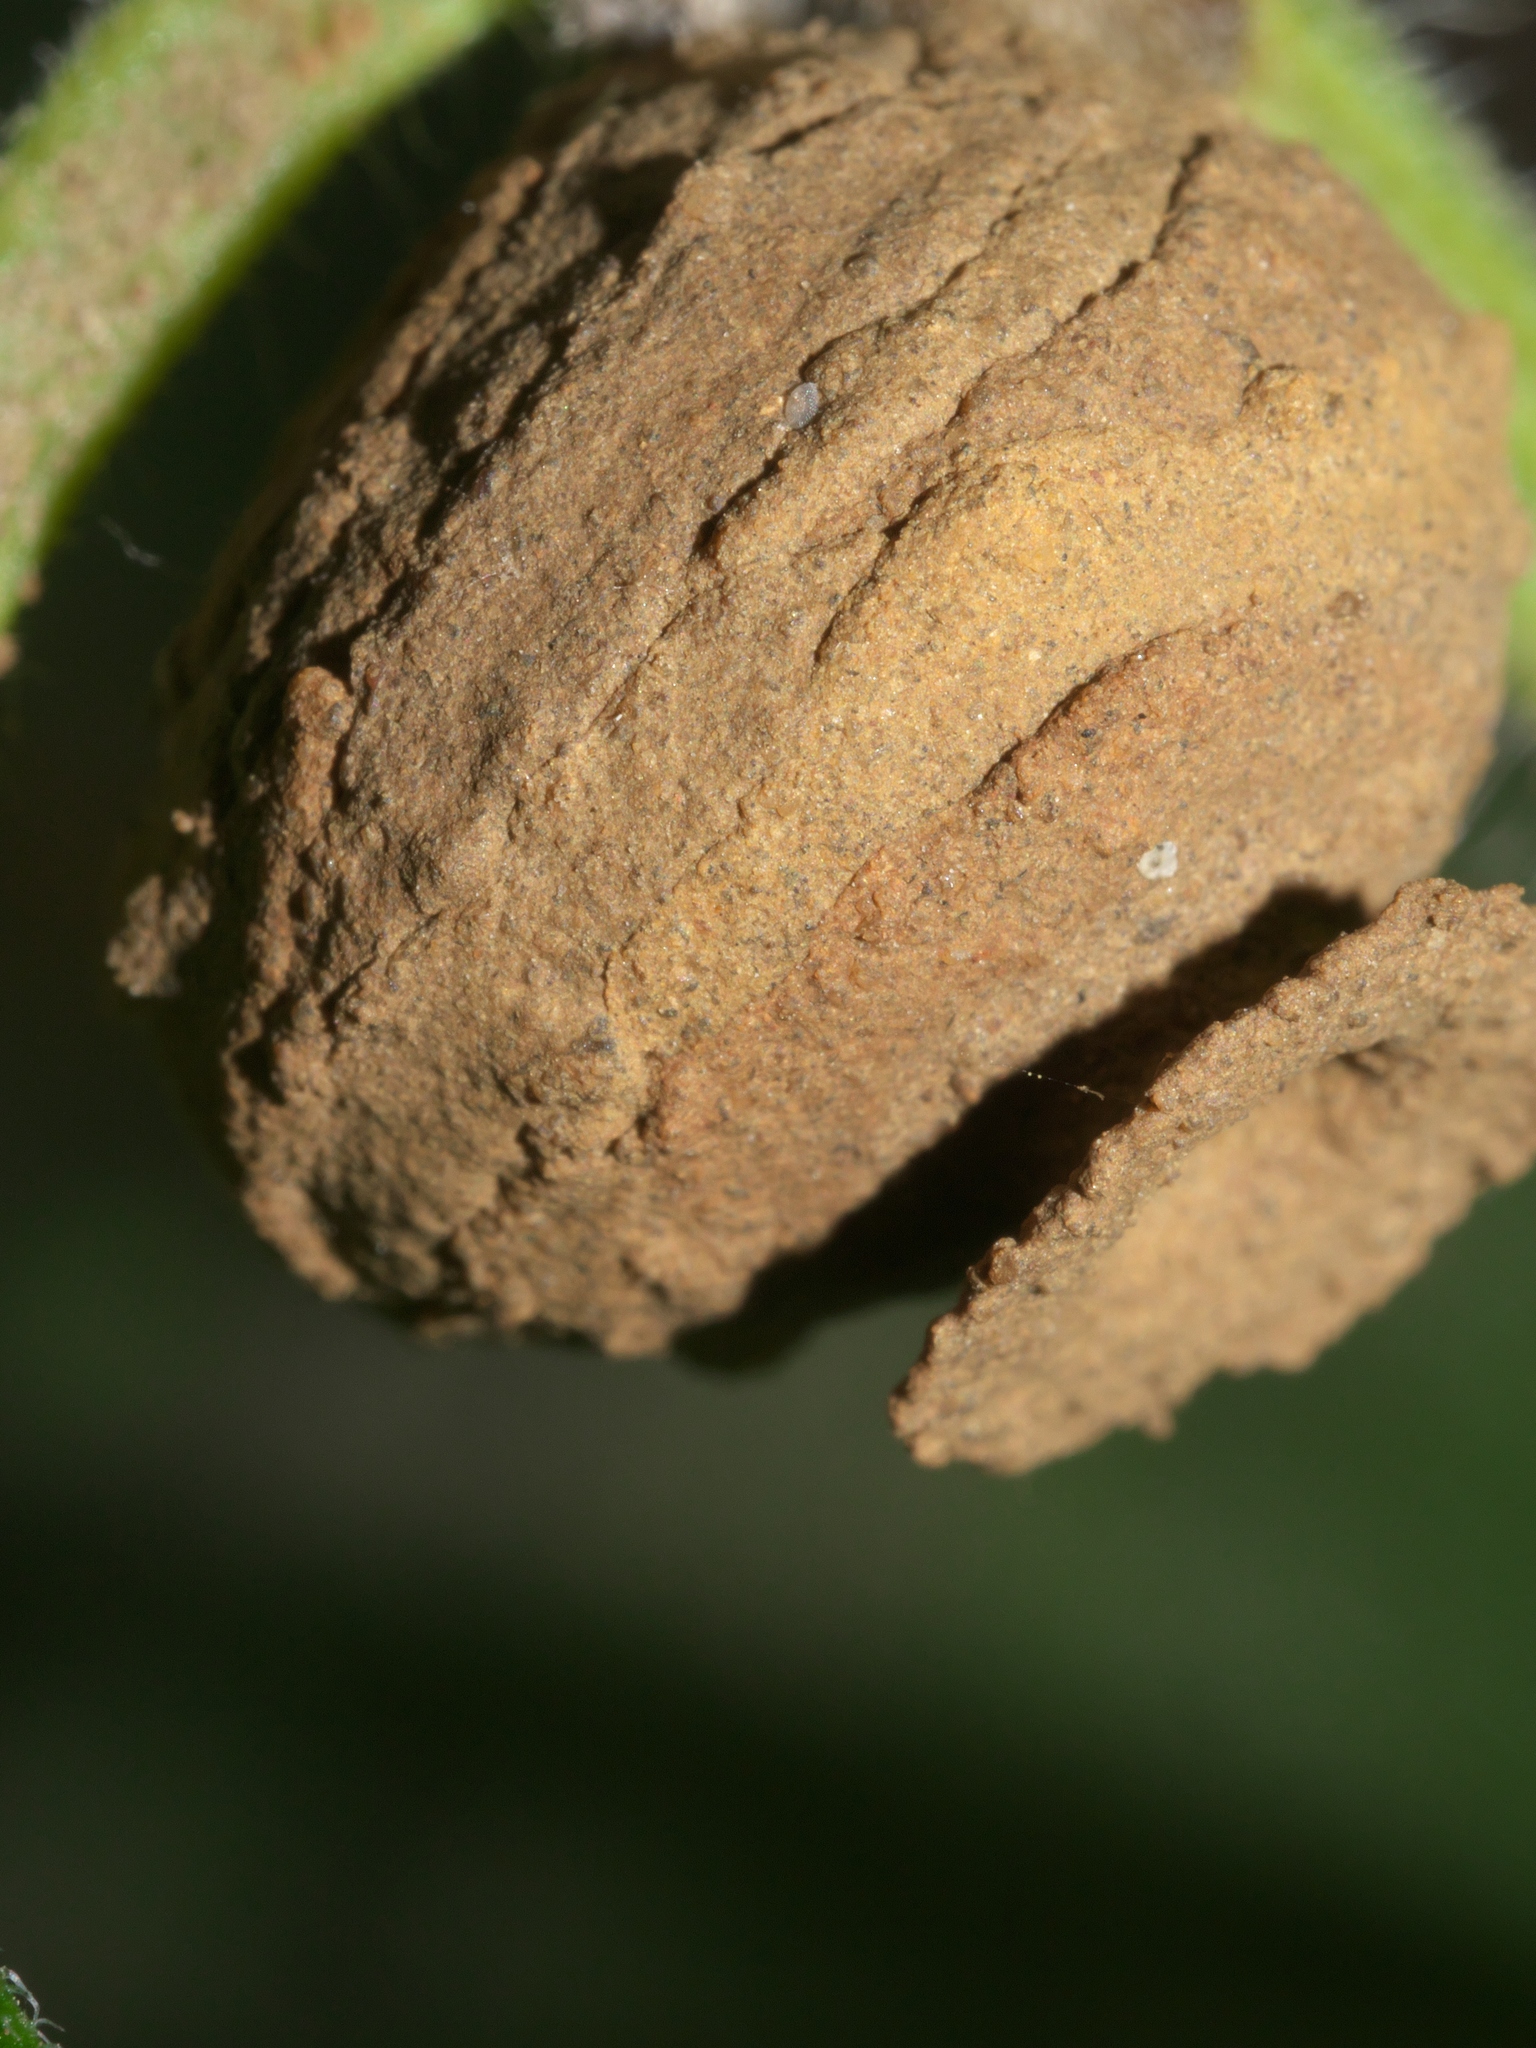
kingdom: Animalia
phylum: Arthropoda
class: Insecta
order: Hymenoptera
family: Vespidae
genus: Eumenes
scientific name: Eumenes
